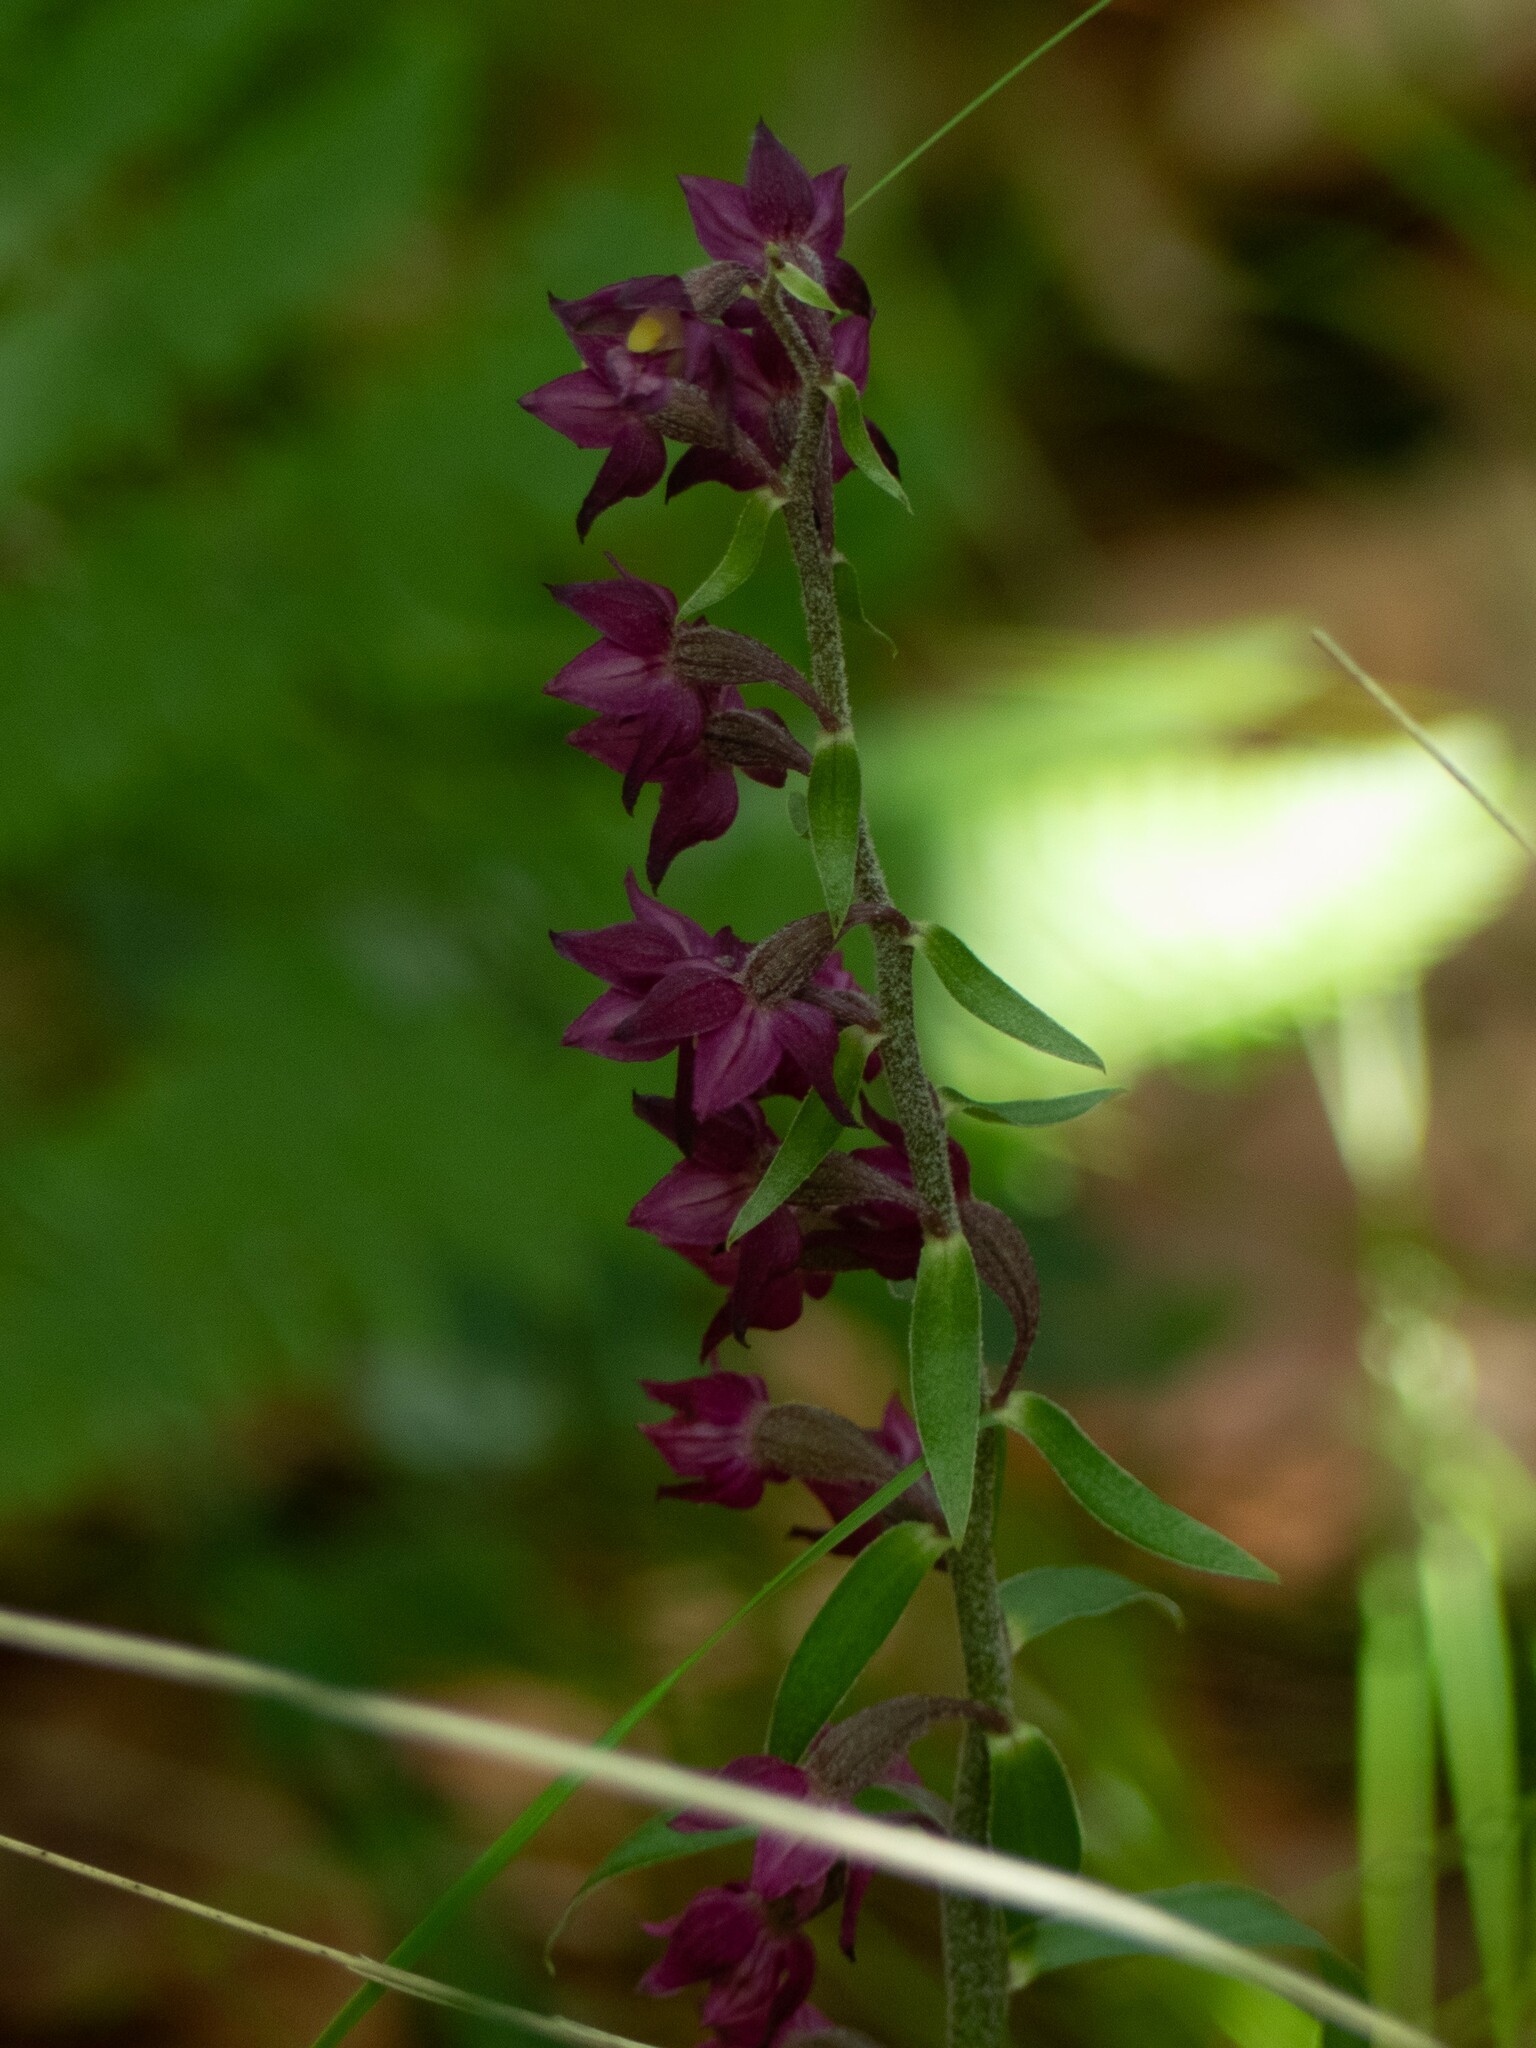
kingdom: Plantae
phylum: Tracheophyta
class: Liliopsida
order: Asparagales
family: Orchidaceae
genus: Epipactis
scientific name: Epipactis atrorubens
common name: Dark-red helleborine
